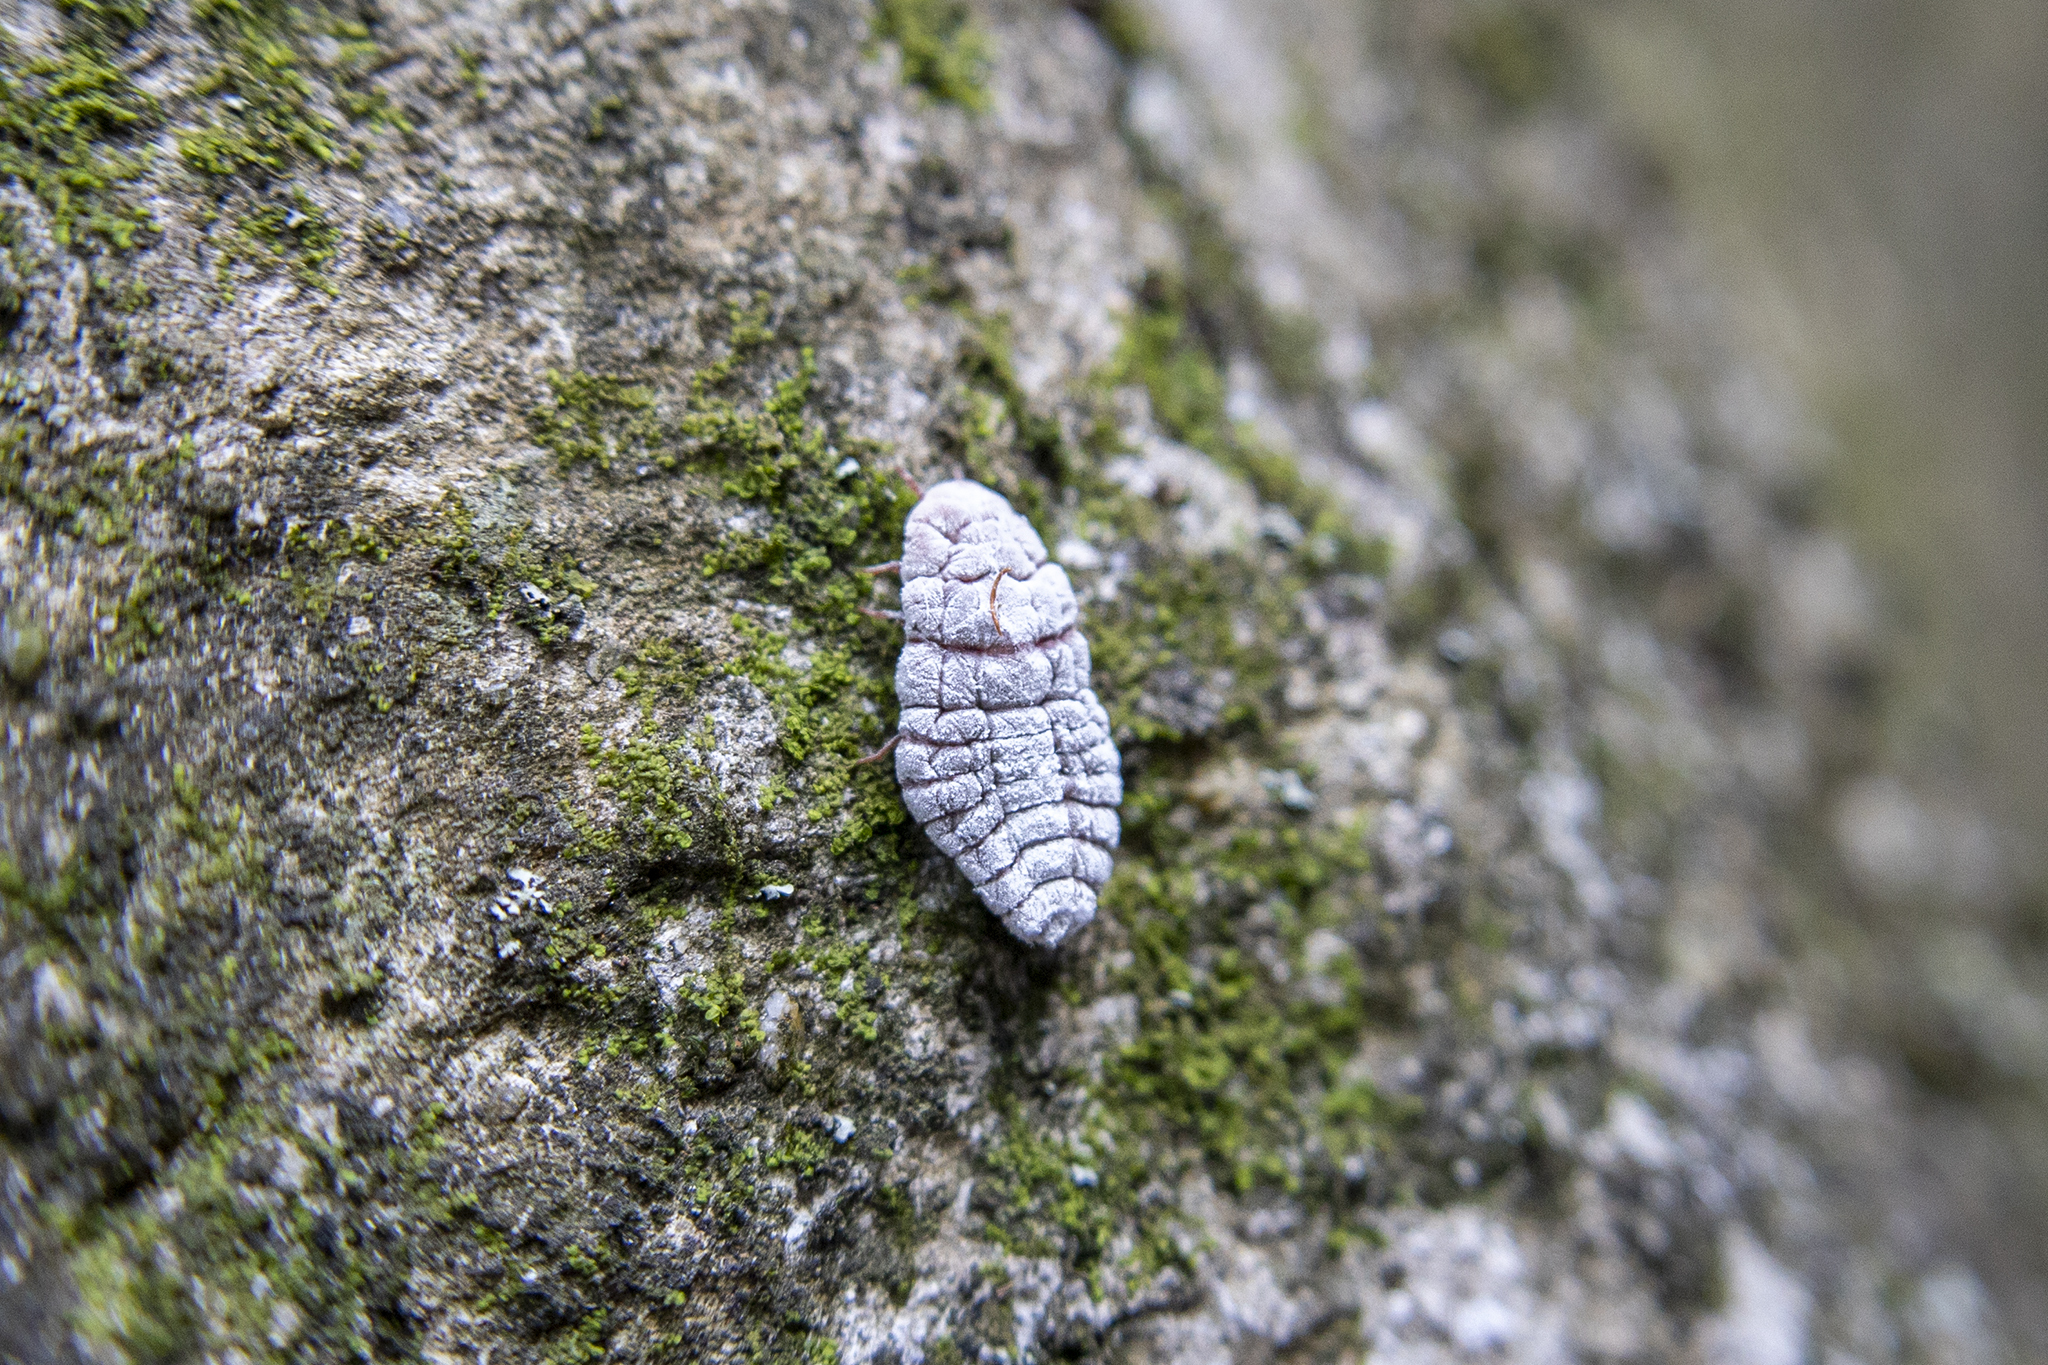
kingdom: Animalia
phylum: Arthropoda
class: Insecta
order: Hemiptera
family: Margarodidae
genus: Coelostomidia
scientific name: Coelostomidia zealandica
